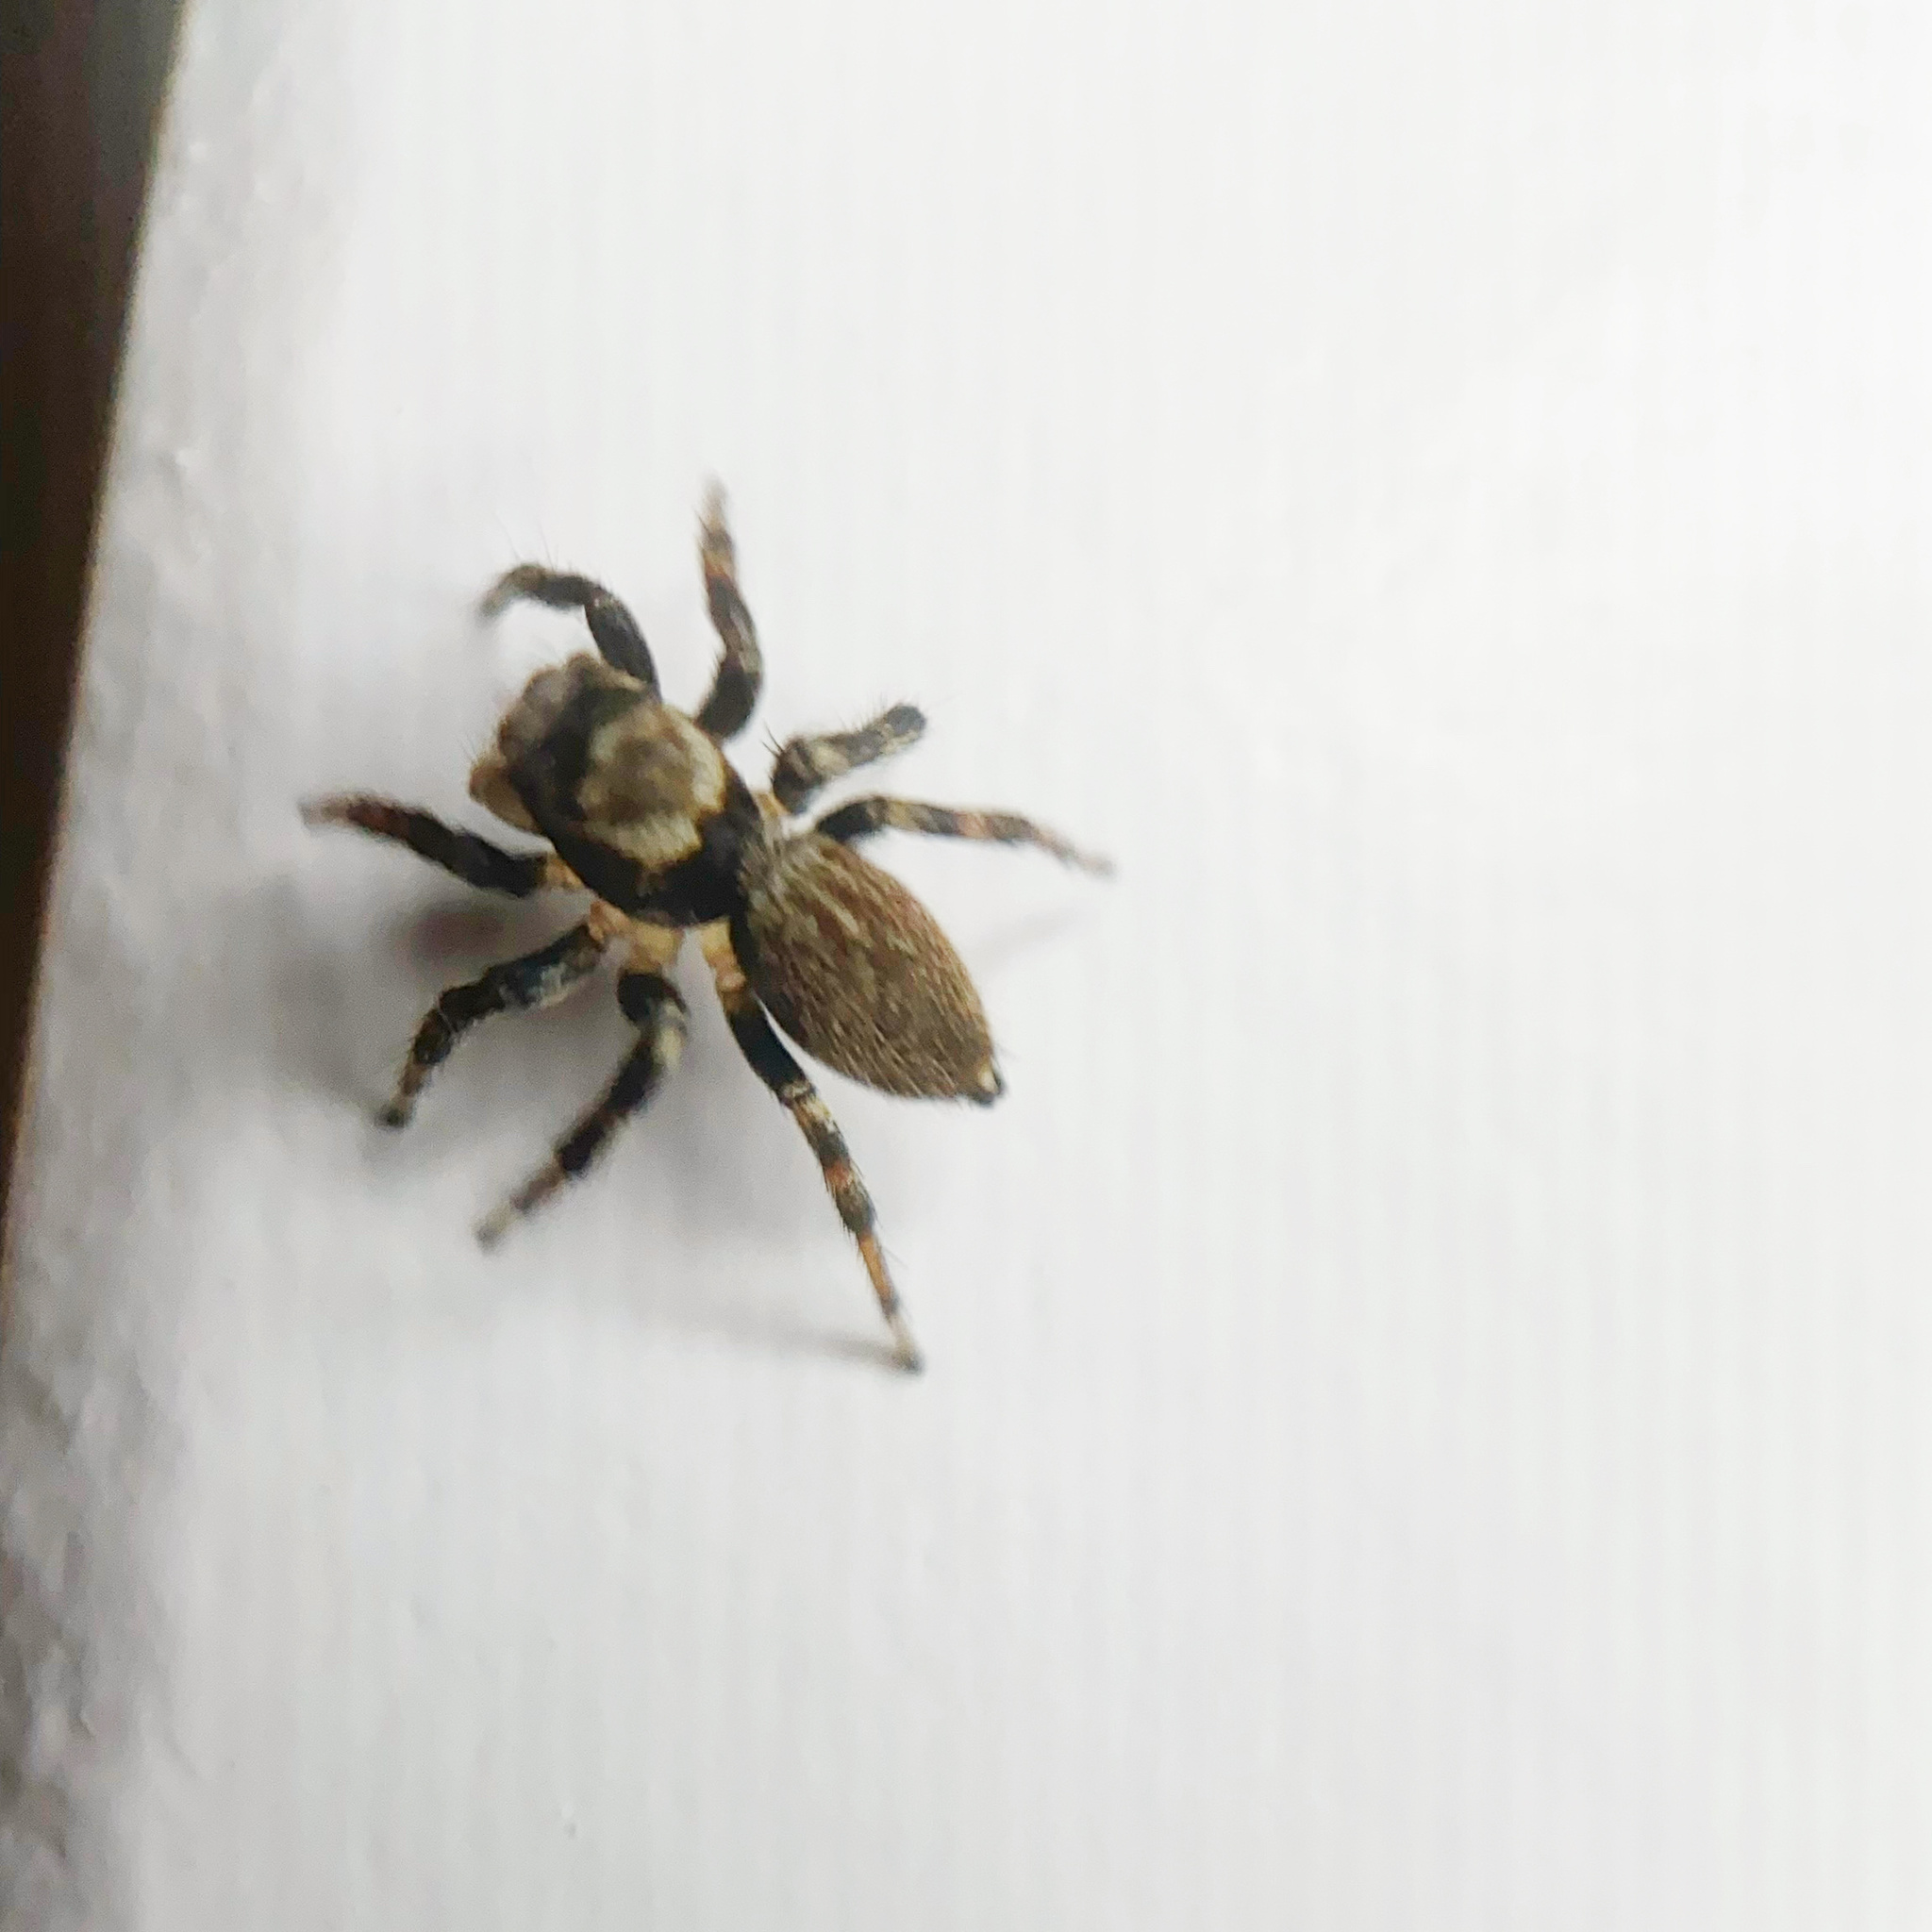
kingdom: Animalia
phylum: Arthropoda
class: Arachnida
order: Araneae
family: Salticidae
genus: Maratus
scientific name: Maratus griseus
